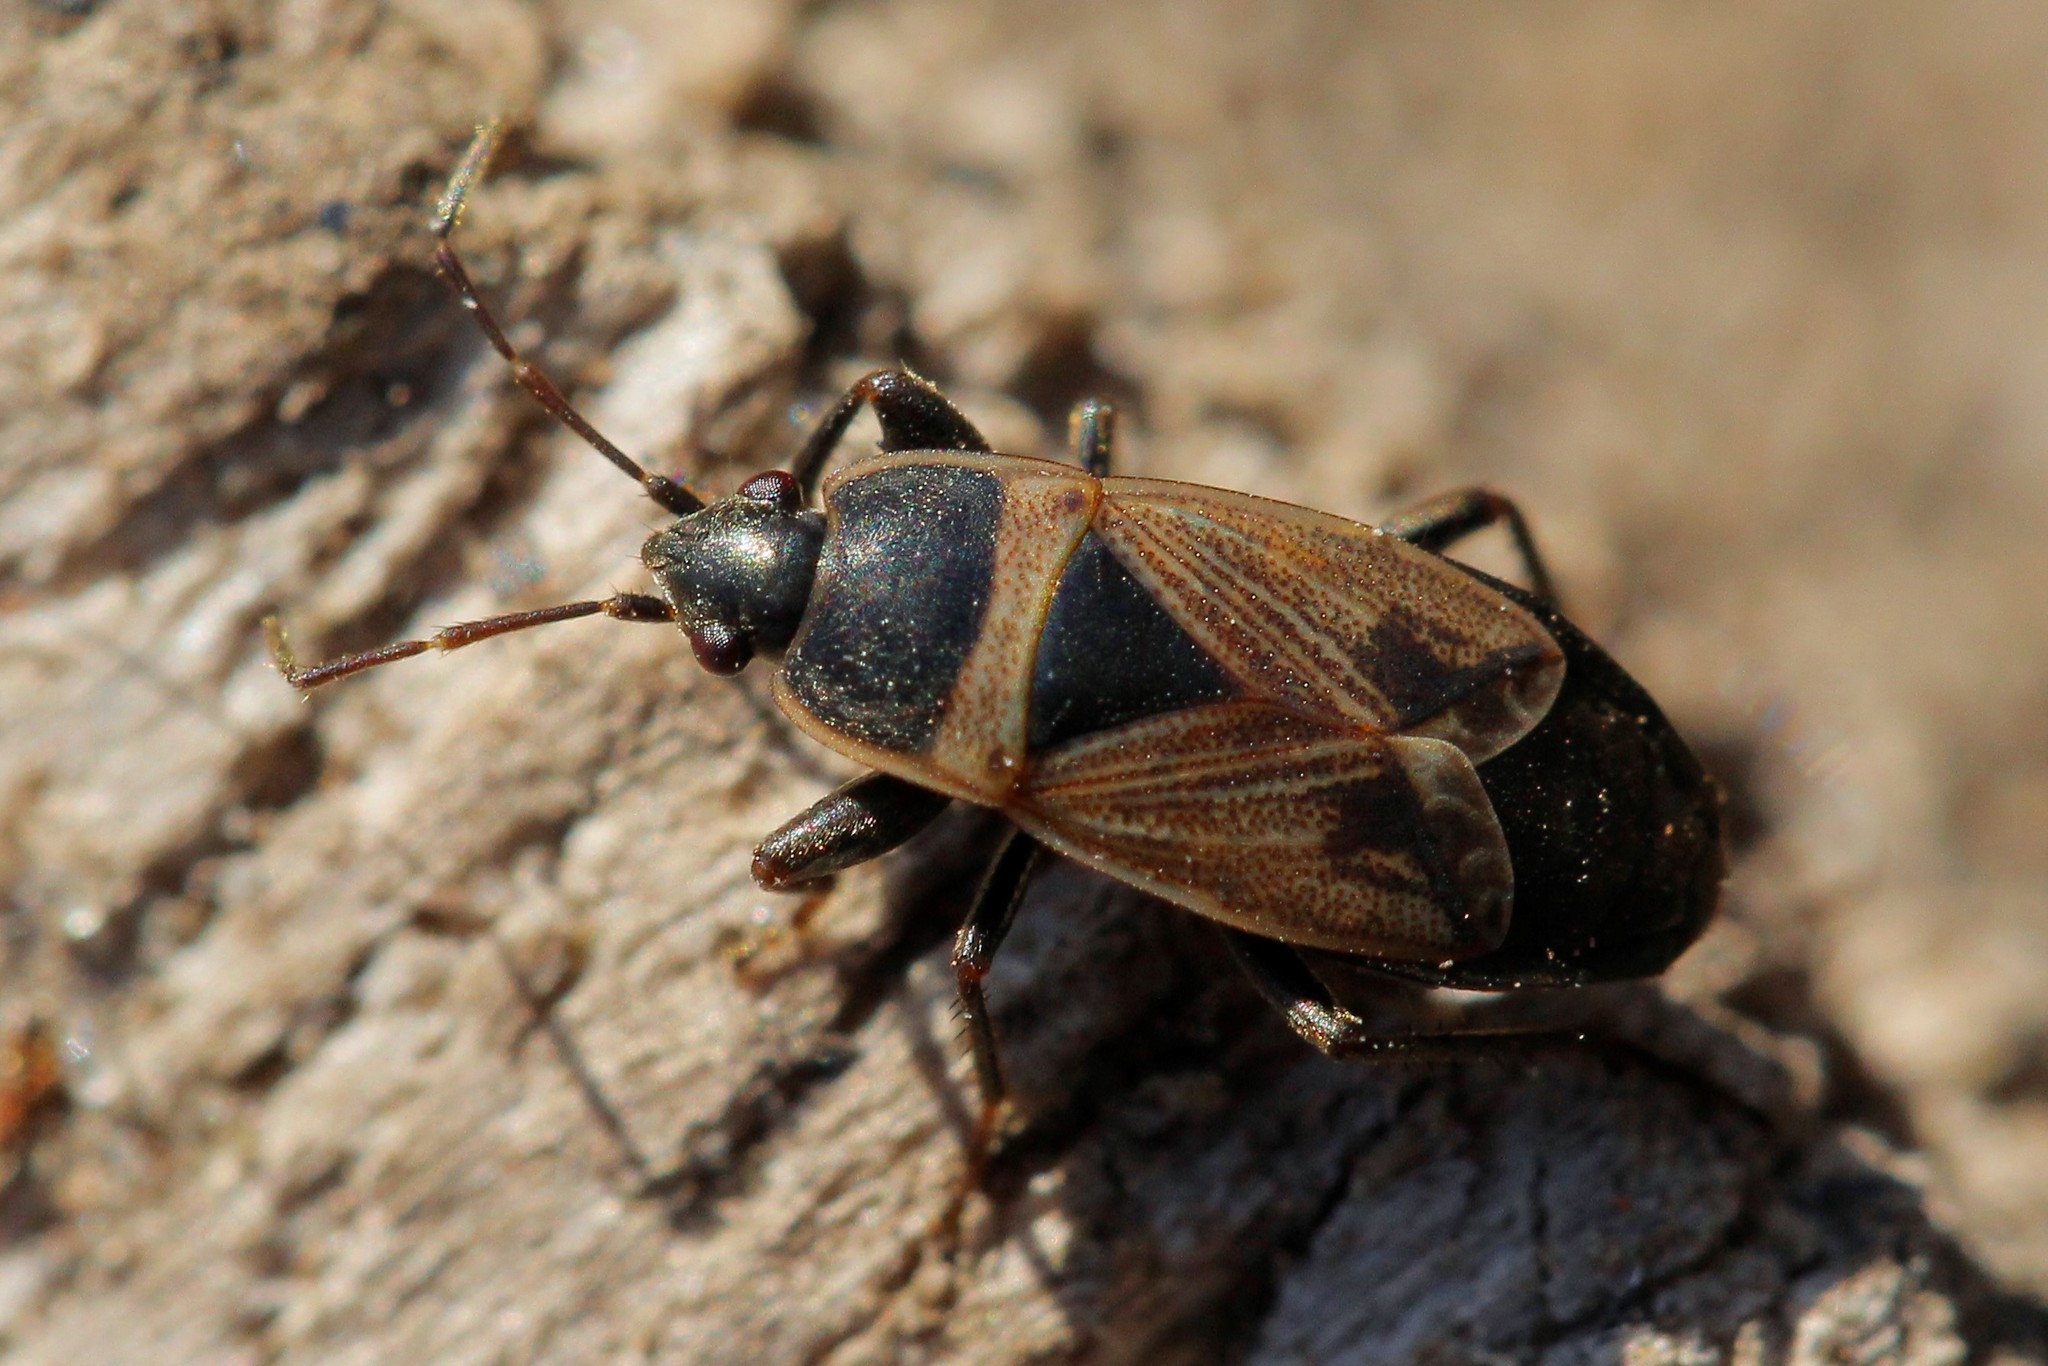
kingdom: Animalia
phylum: Arthropoda
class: Insecta
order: Hemiptera
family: Rhyparochromidae
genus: Bleteogonus
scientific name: Bleteogonus beckeri
